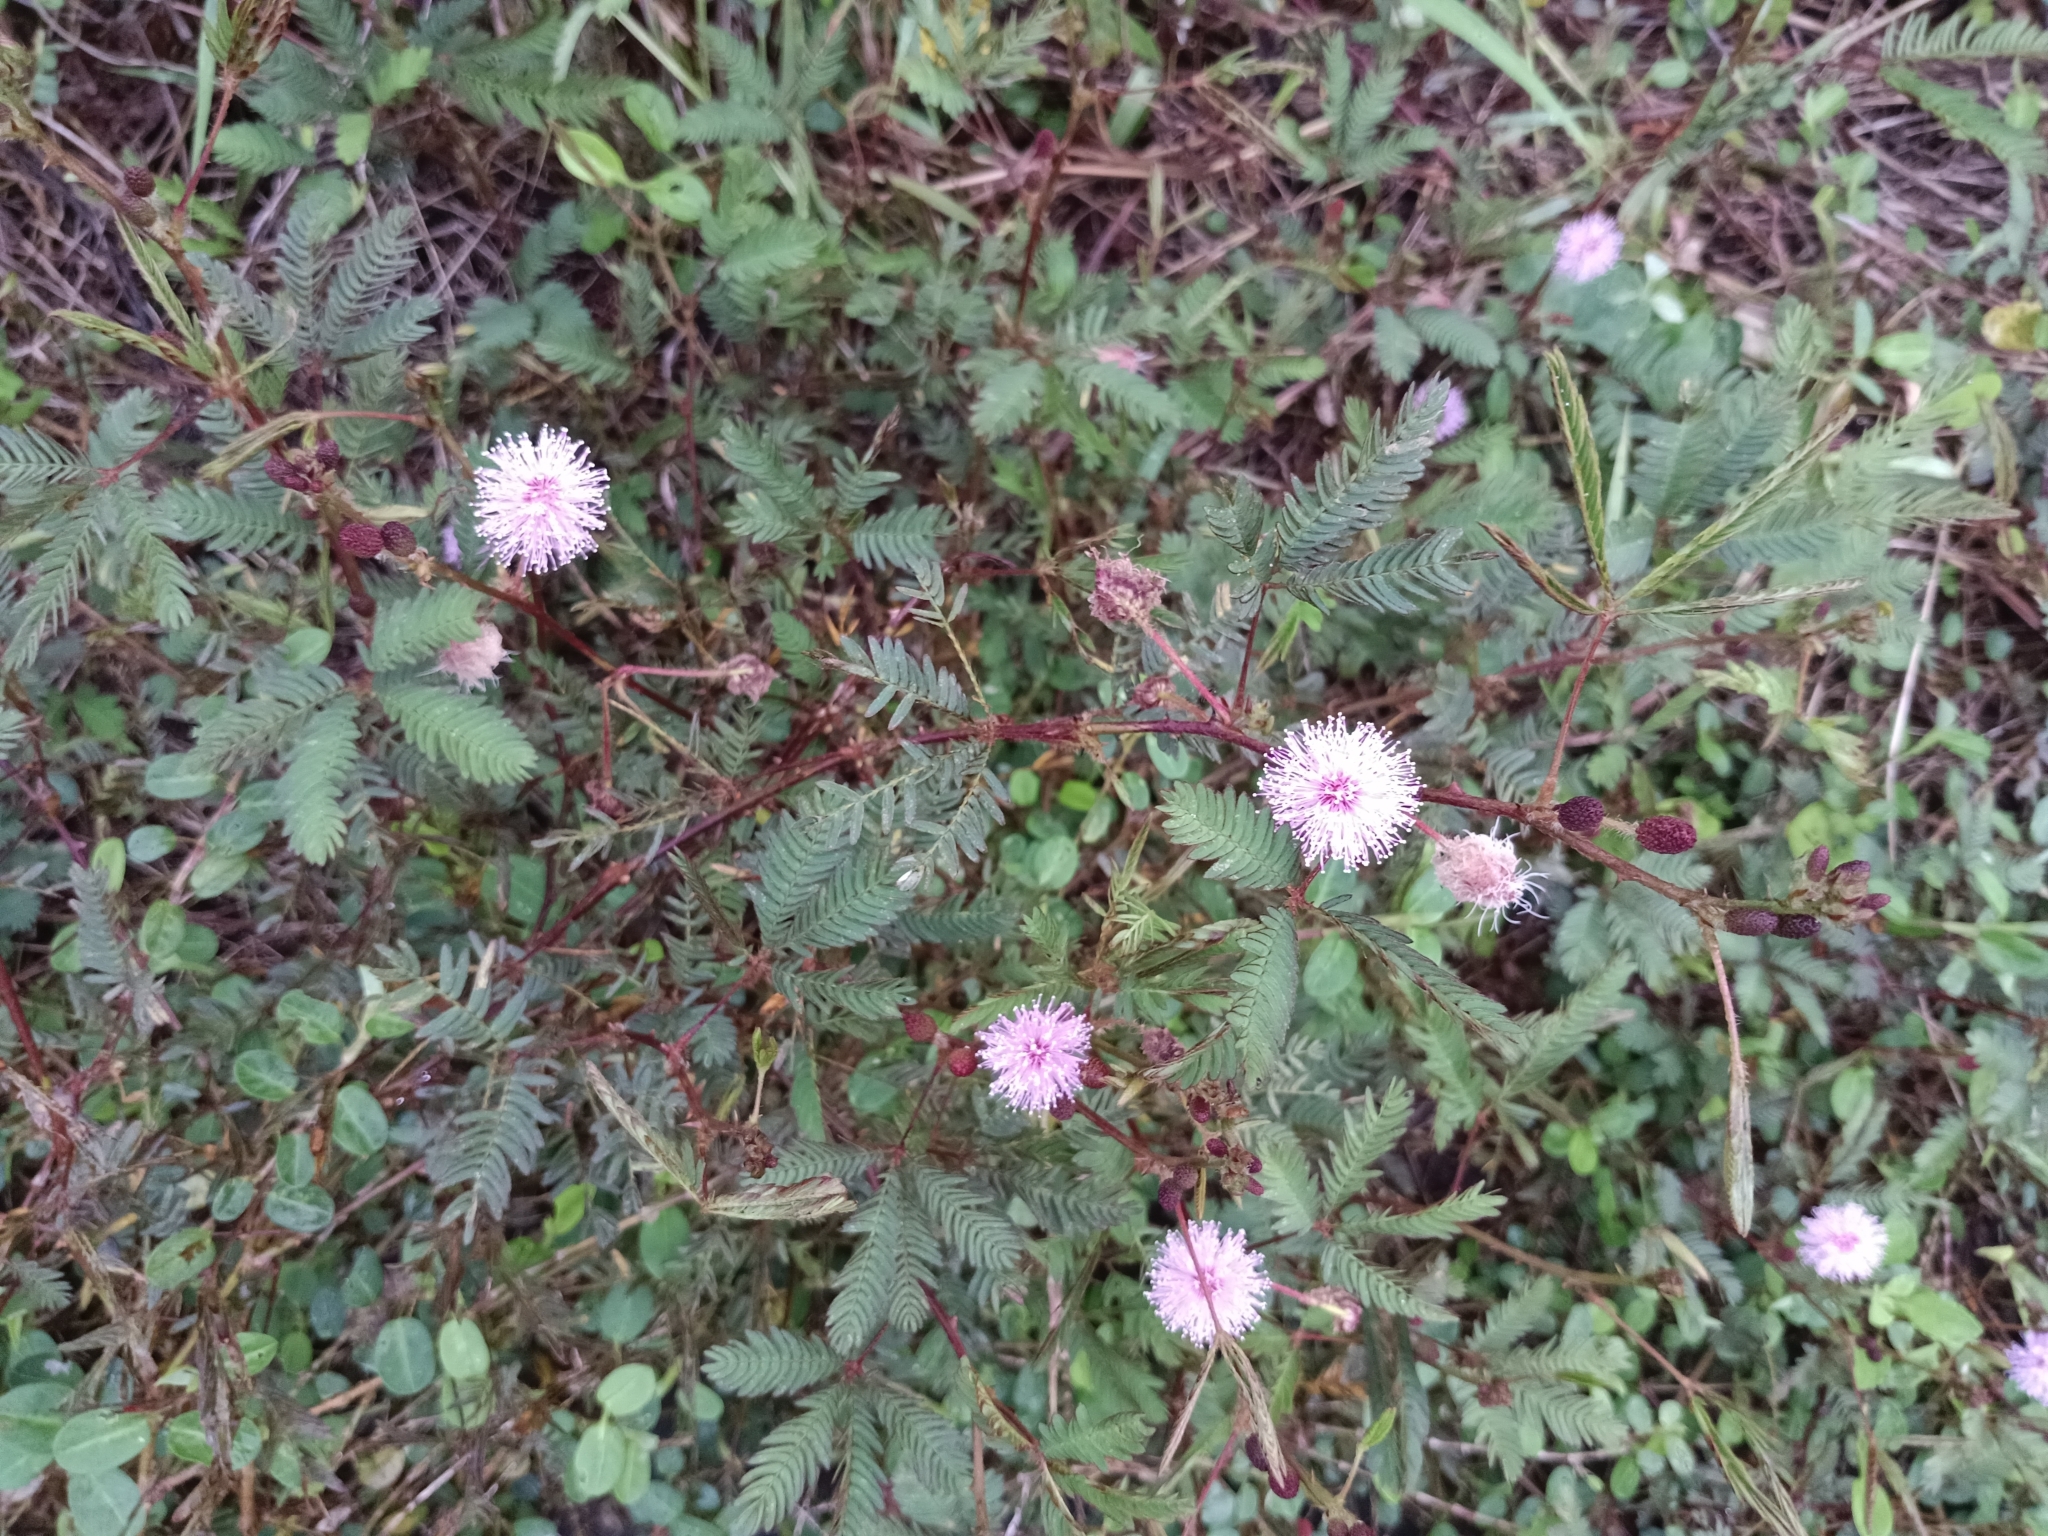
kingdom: Plantae
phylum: Tracheophyta
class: Magnoliopsida
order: Fabales
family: Fabaceae
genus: Mimosa
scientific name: Mimosa pudica
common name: Sensitive plant
